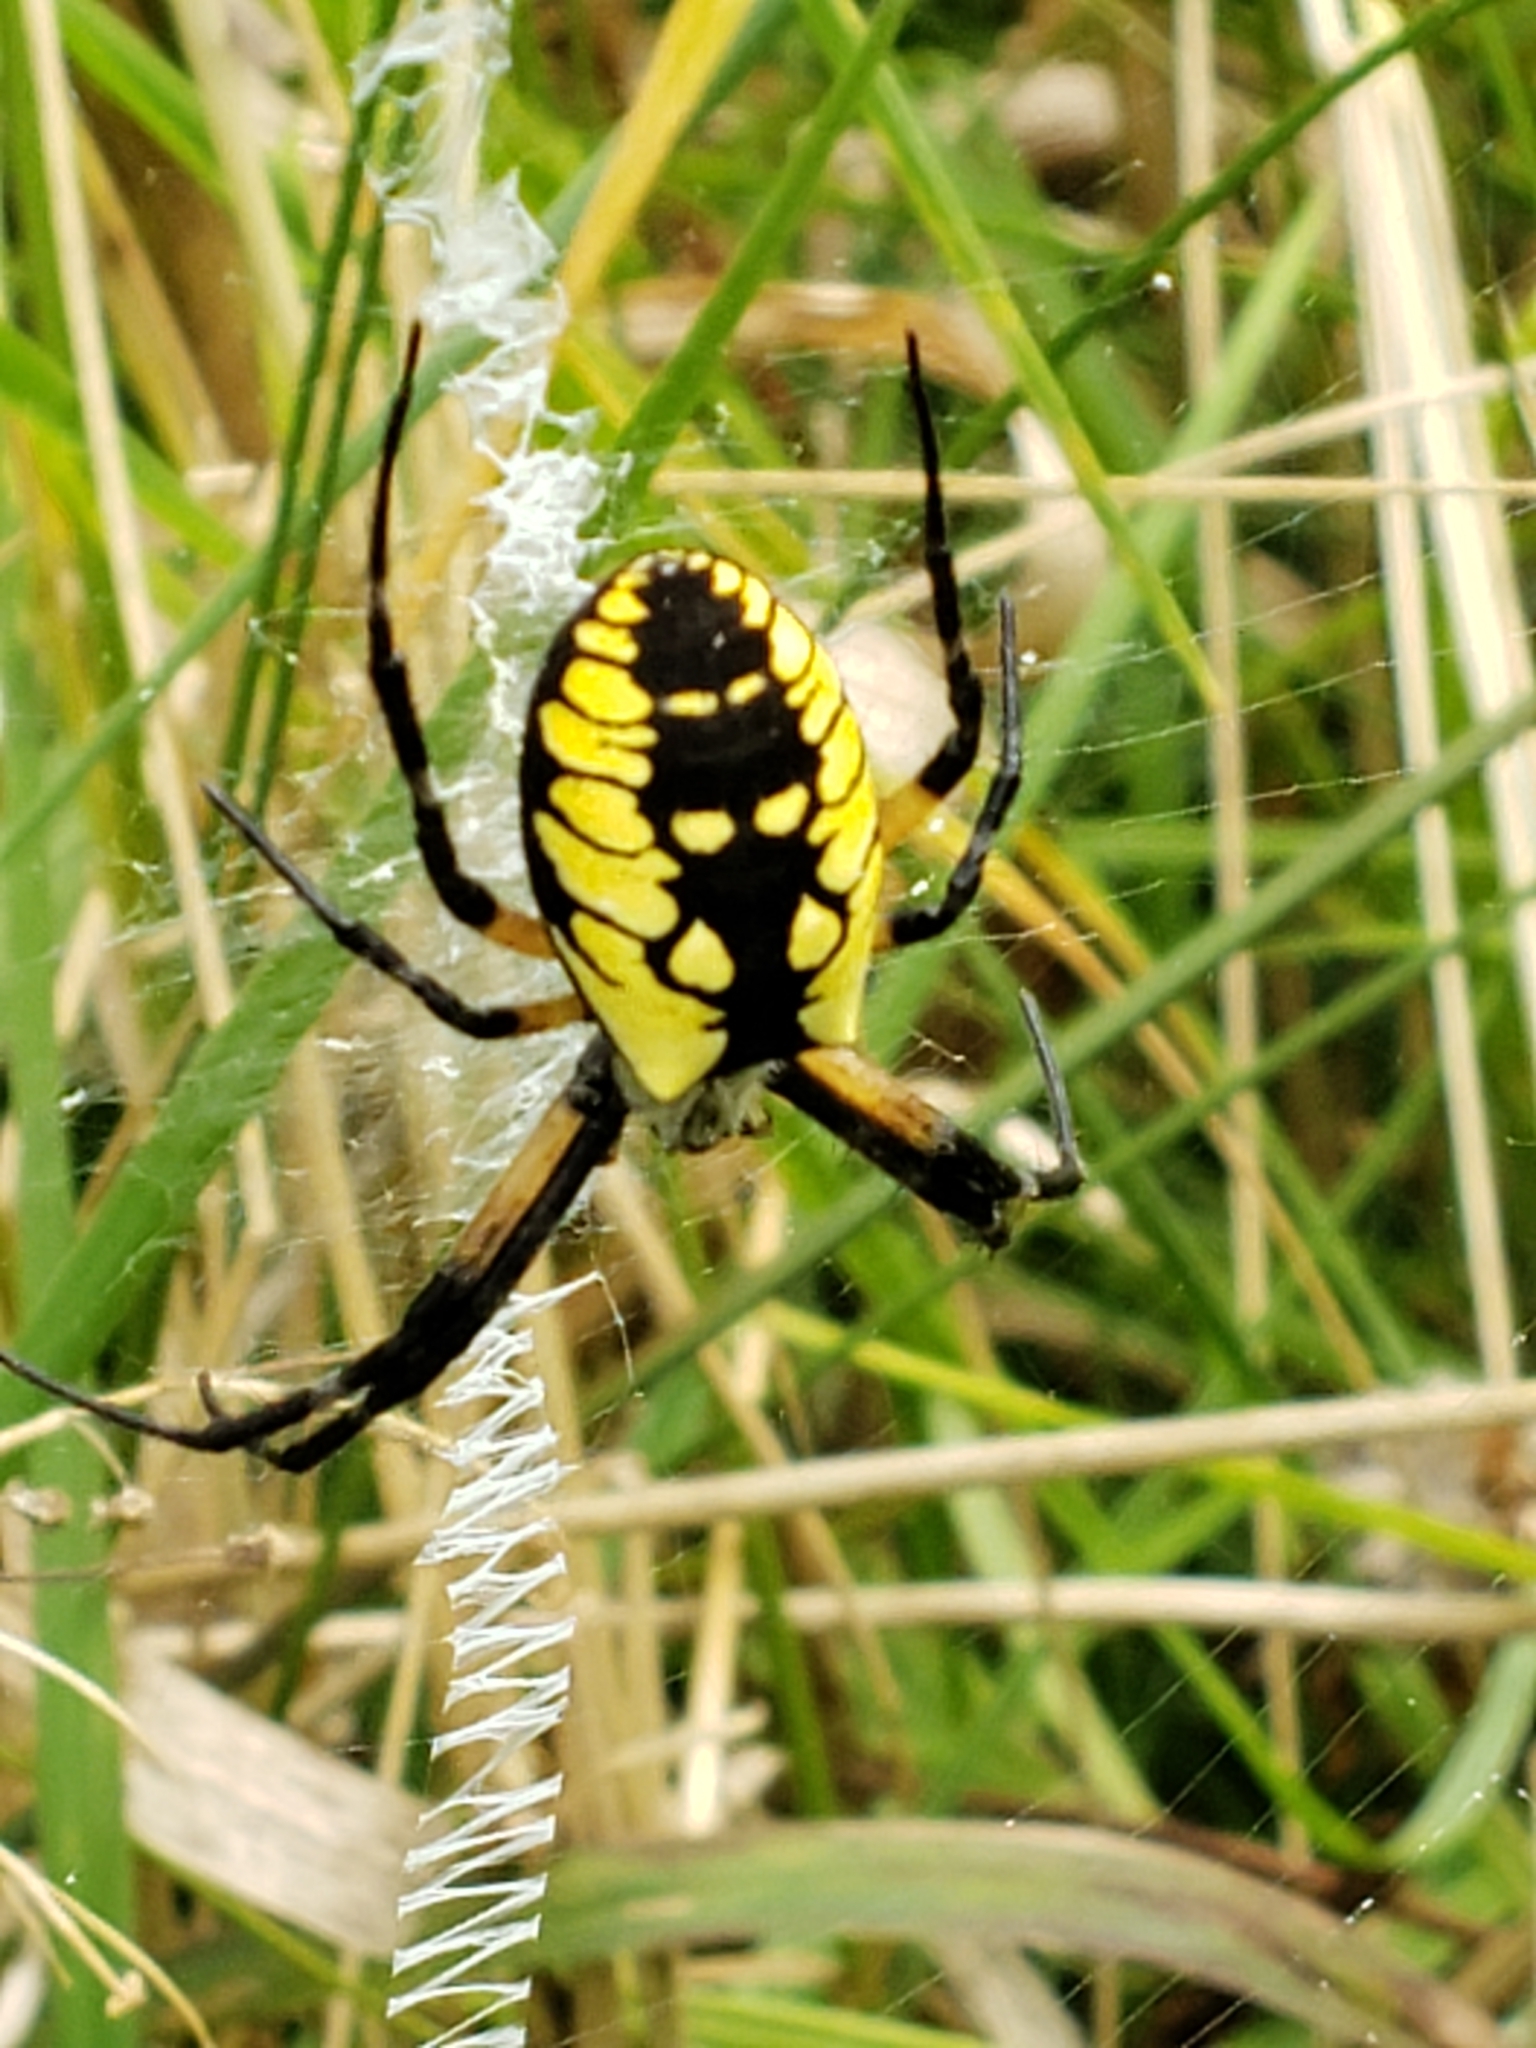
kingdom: Animalia
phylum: Arthropoda
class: Arachnida
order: Araneae
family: Araneidae
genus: Argiope
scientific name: Argiope aurantia
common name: Orb weavers
